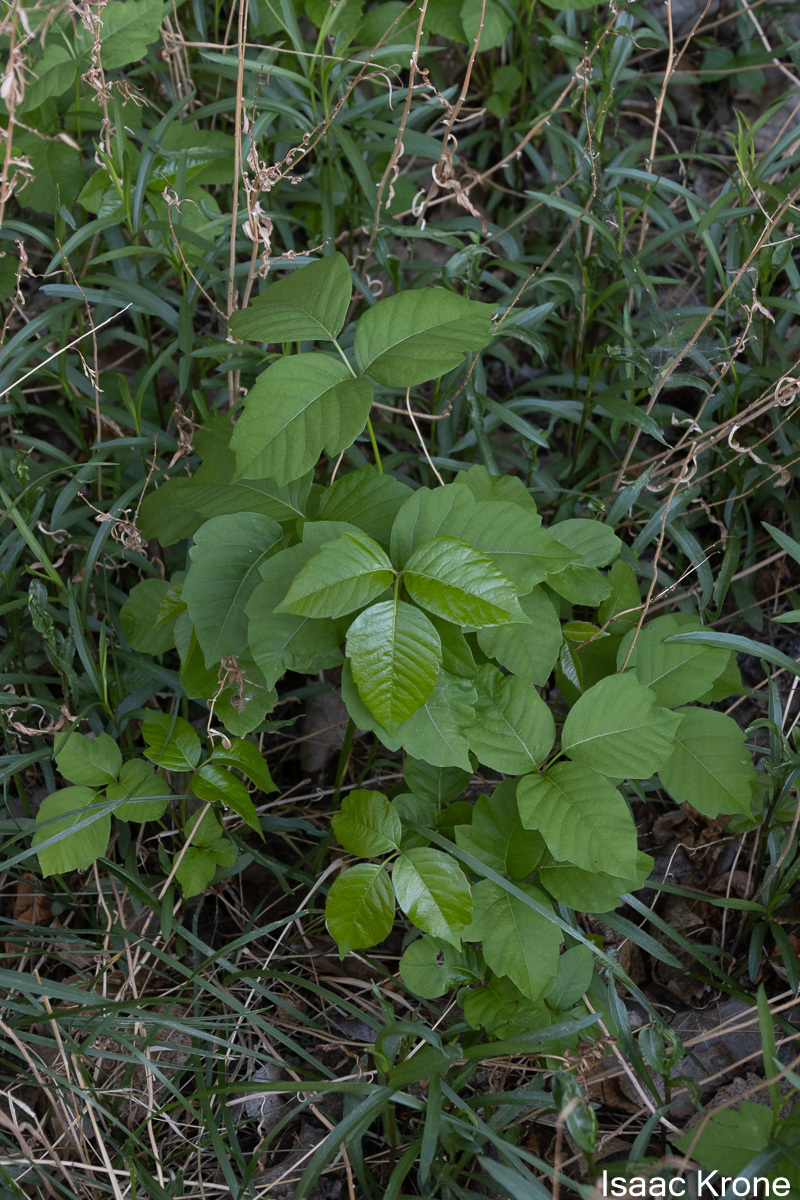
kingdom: Plantae
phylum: Tracheophyta
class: Magnoliopsida
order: Sapindales
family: Anacardiaceae
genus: Toxicodendron
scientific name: Toxicodendron rydbergii
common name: Rydberg's poison-ivy
